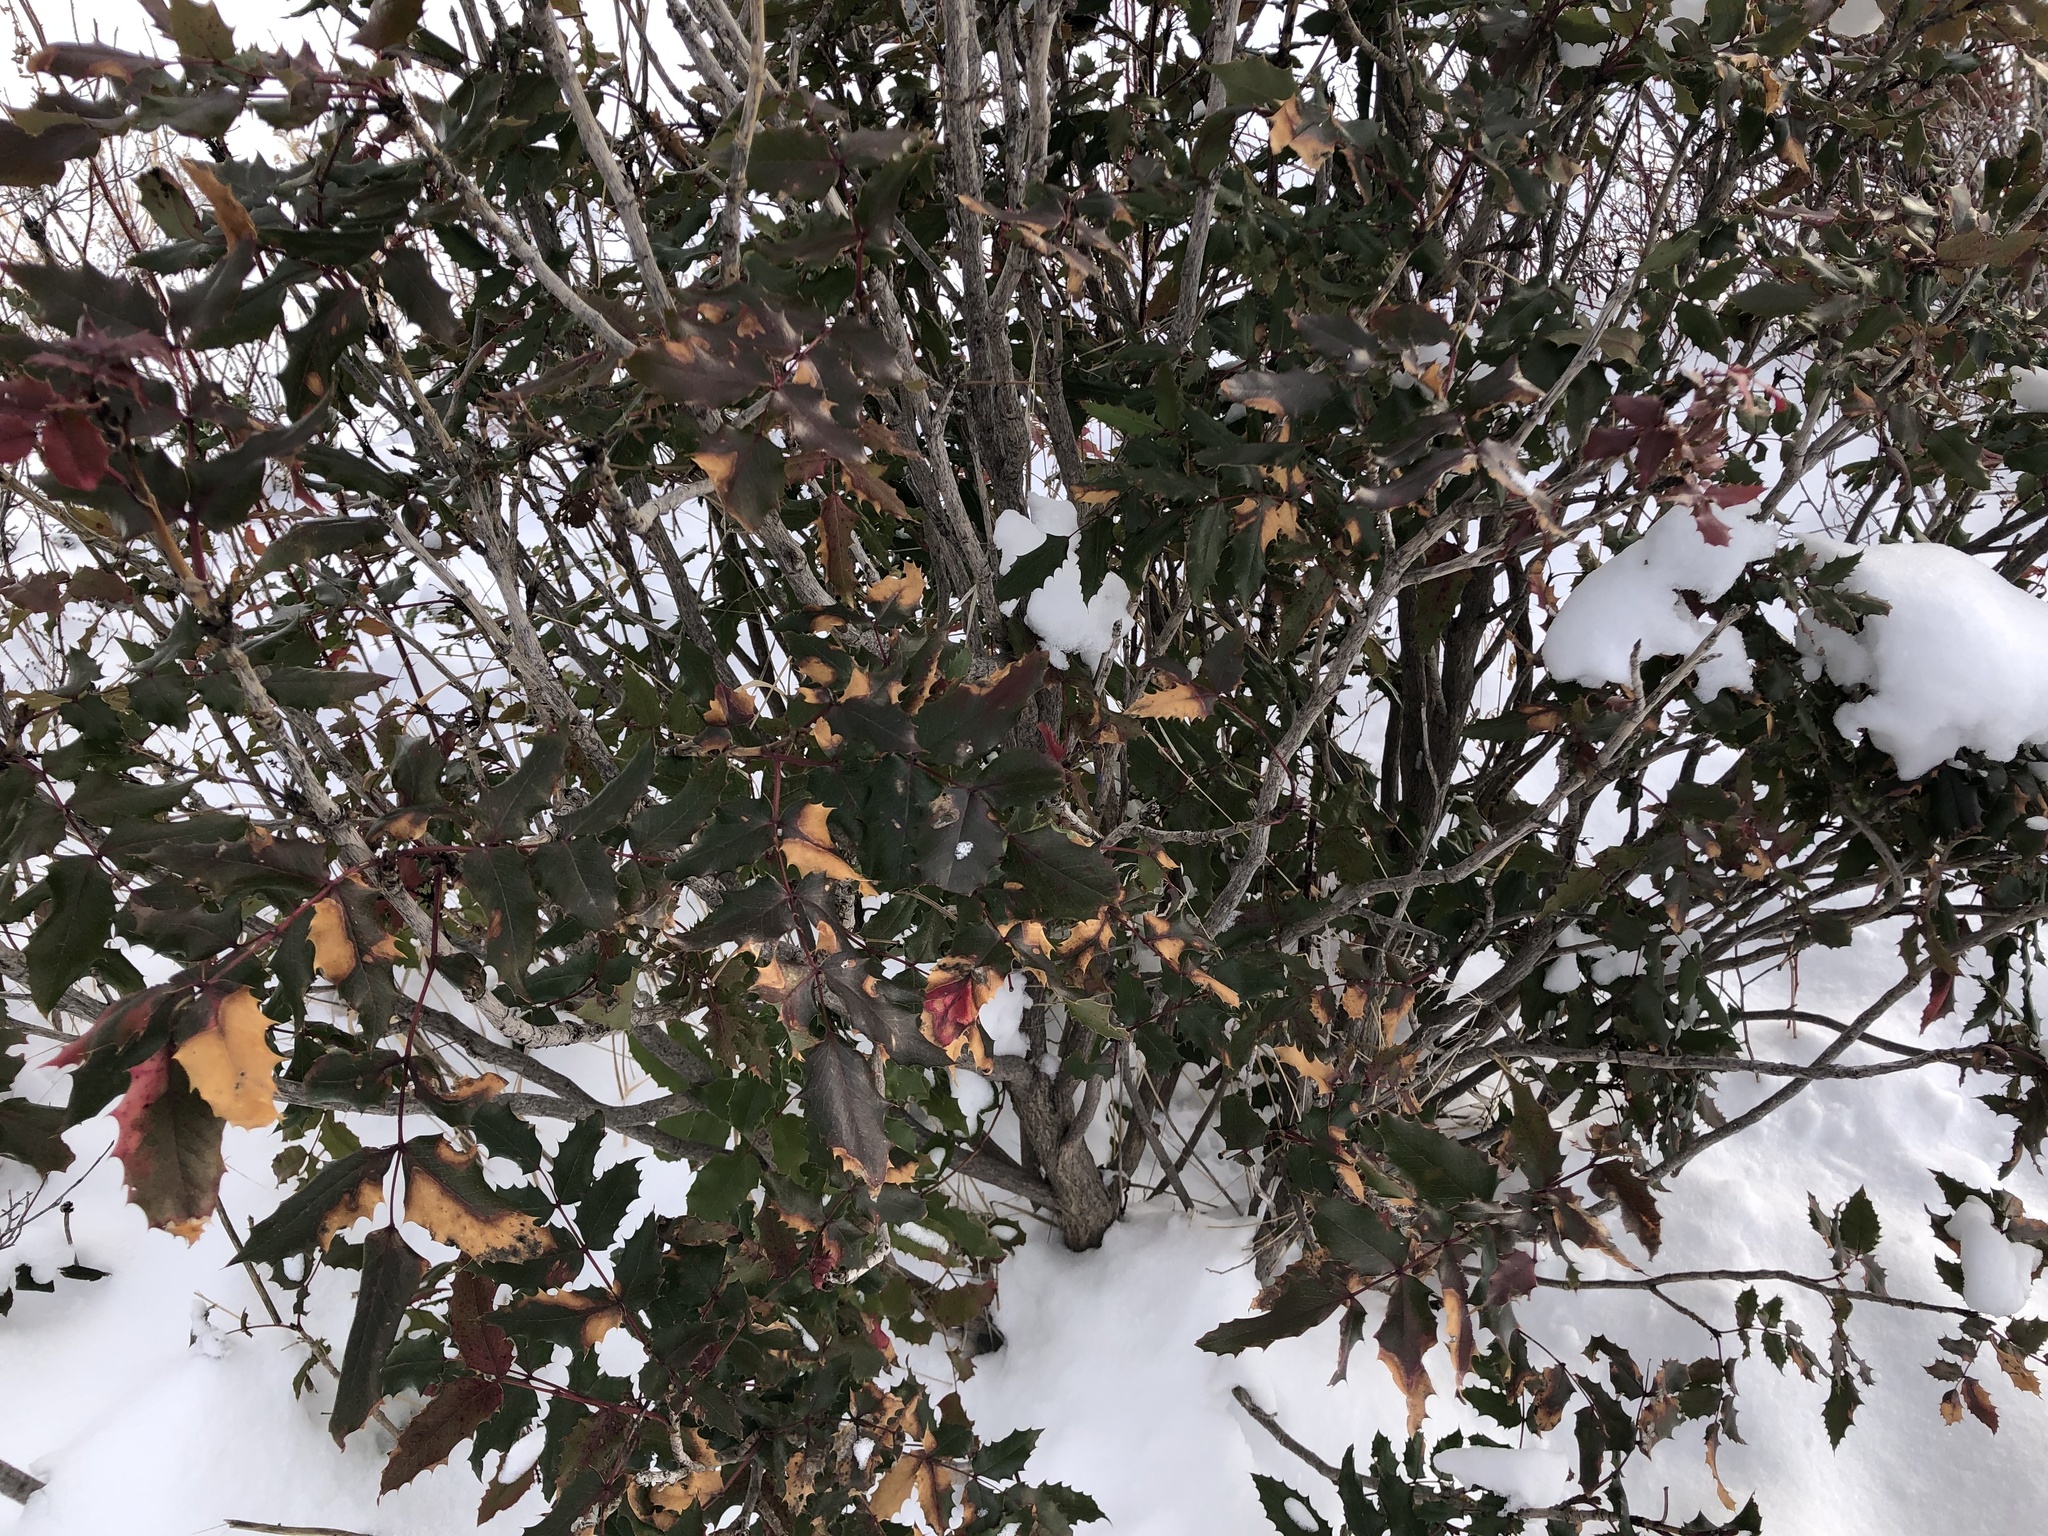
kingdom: Plantae
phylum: Tracheophyta
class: Magnoliopsida
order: Ranunculales
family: Berberidaceae
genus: Mahonia
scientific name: Mahonia aquifolium
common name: Oregon-grape
